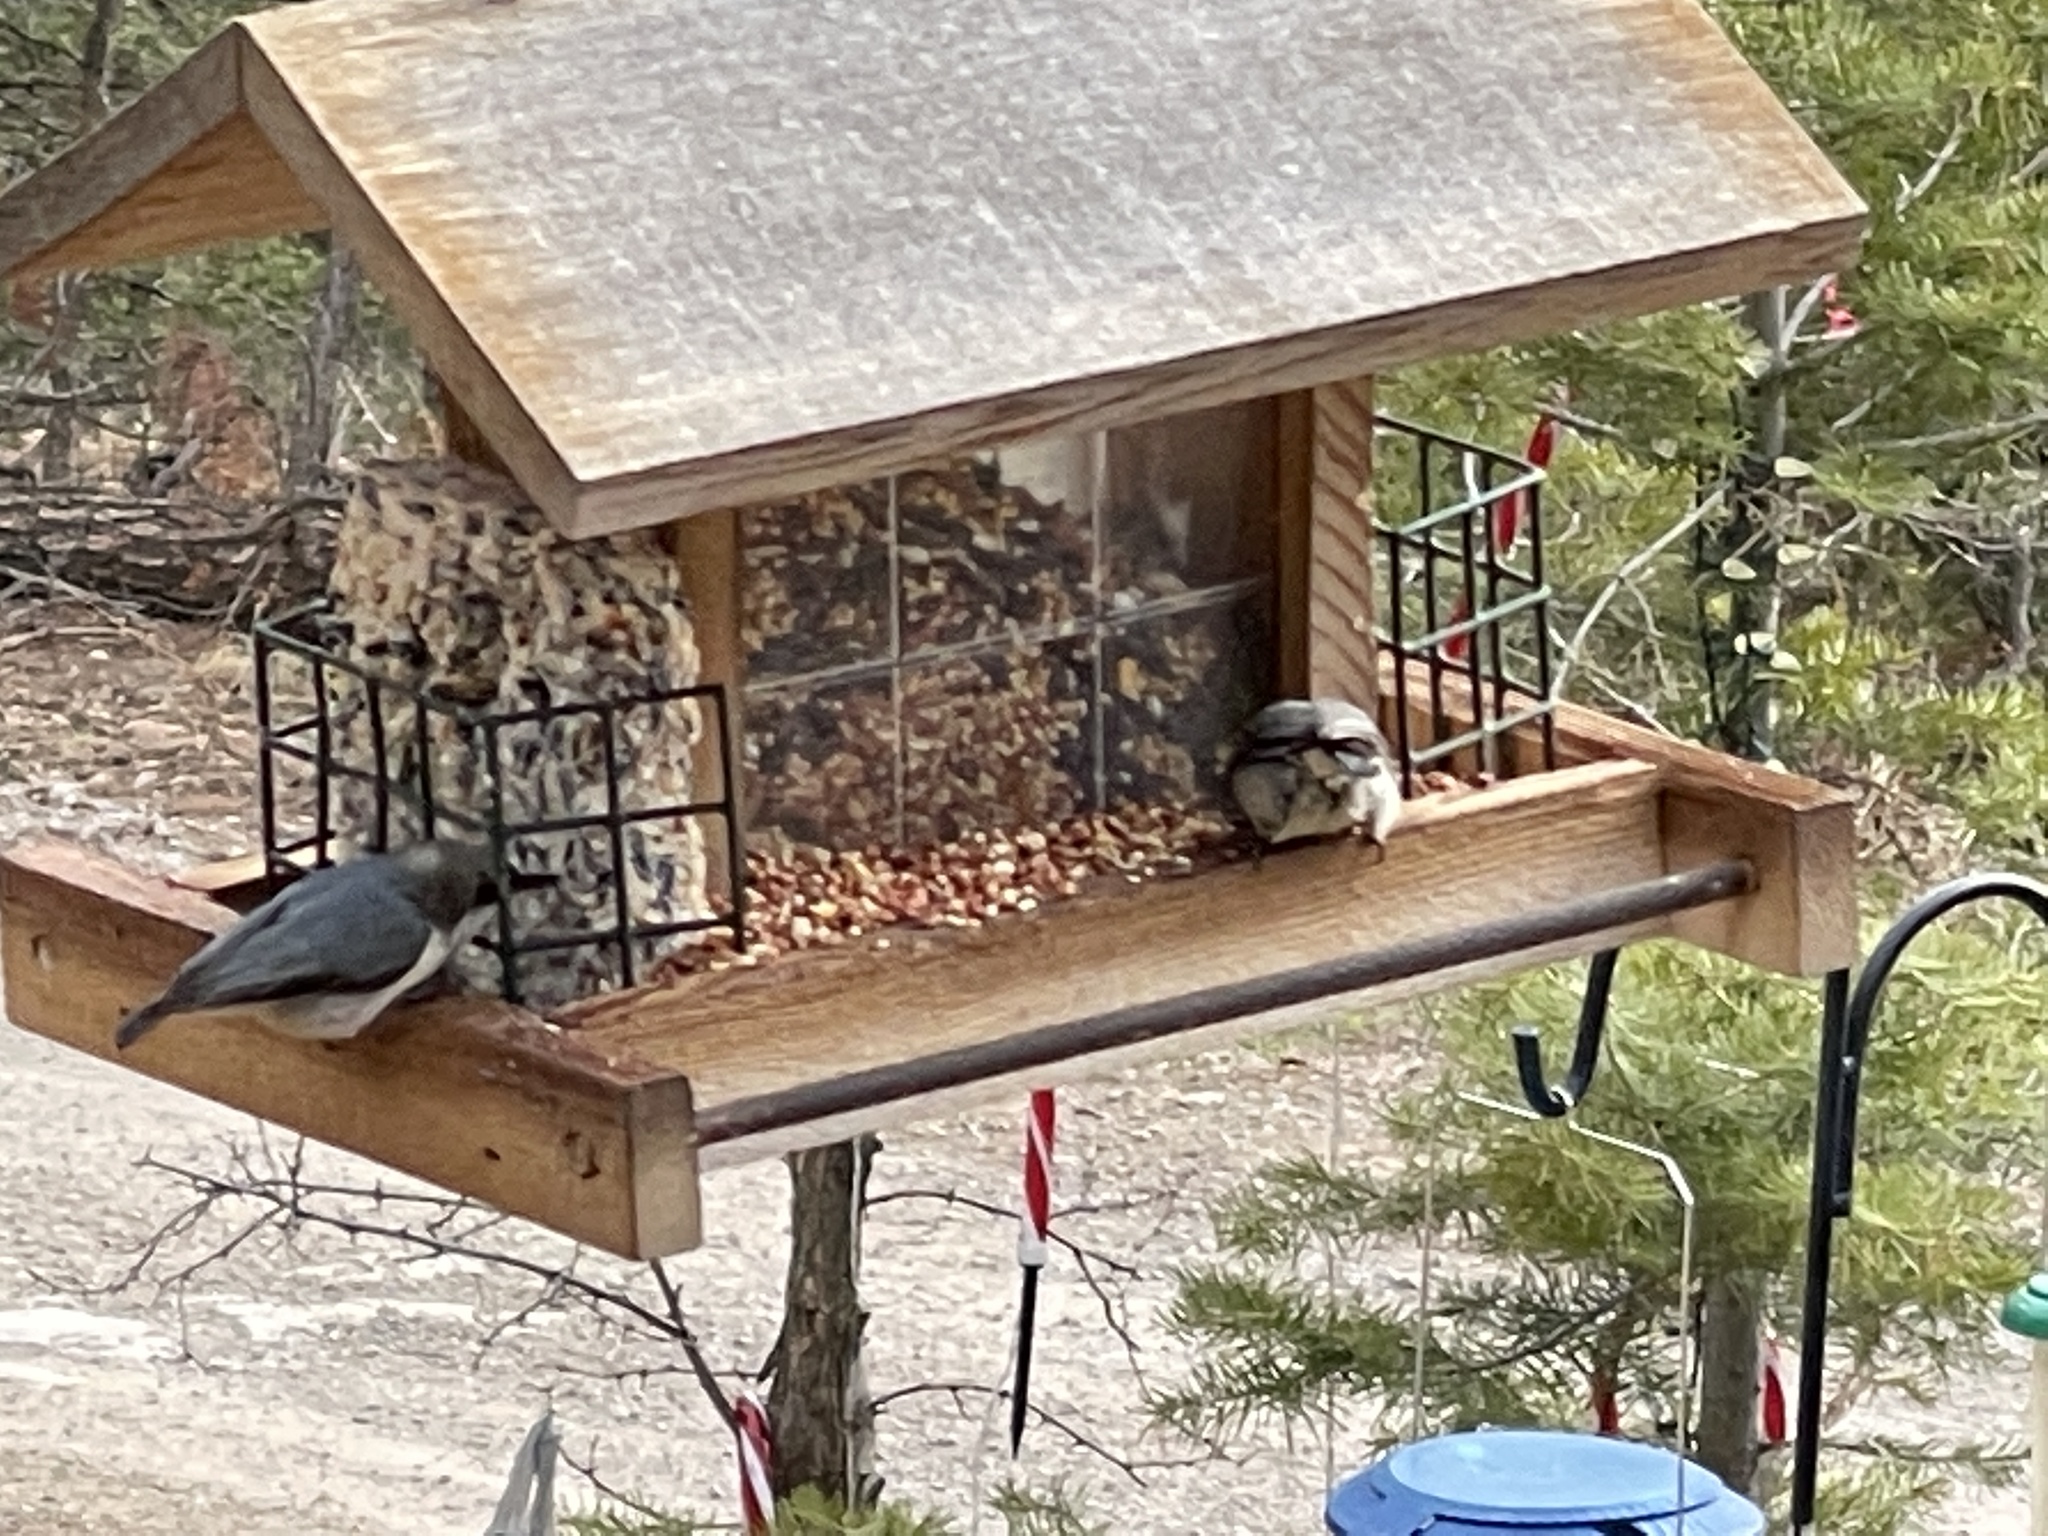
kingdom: Animalia
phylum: Chordata
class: Aves
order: Passeriformes
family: Sittidae
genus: Sitta
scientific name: Sitta pygmaea
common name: Pygmy nuthatch
